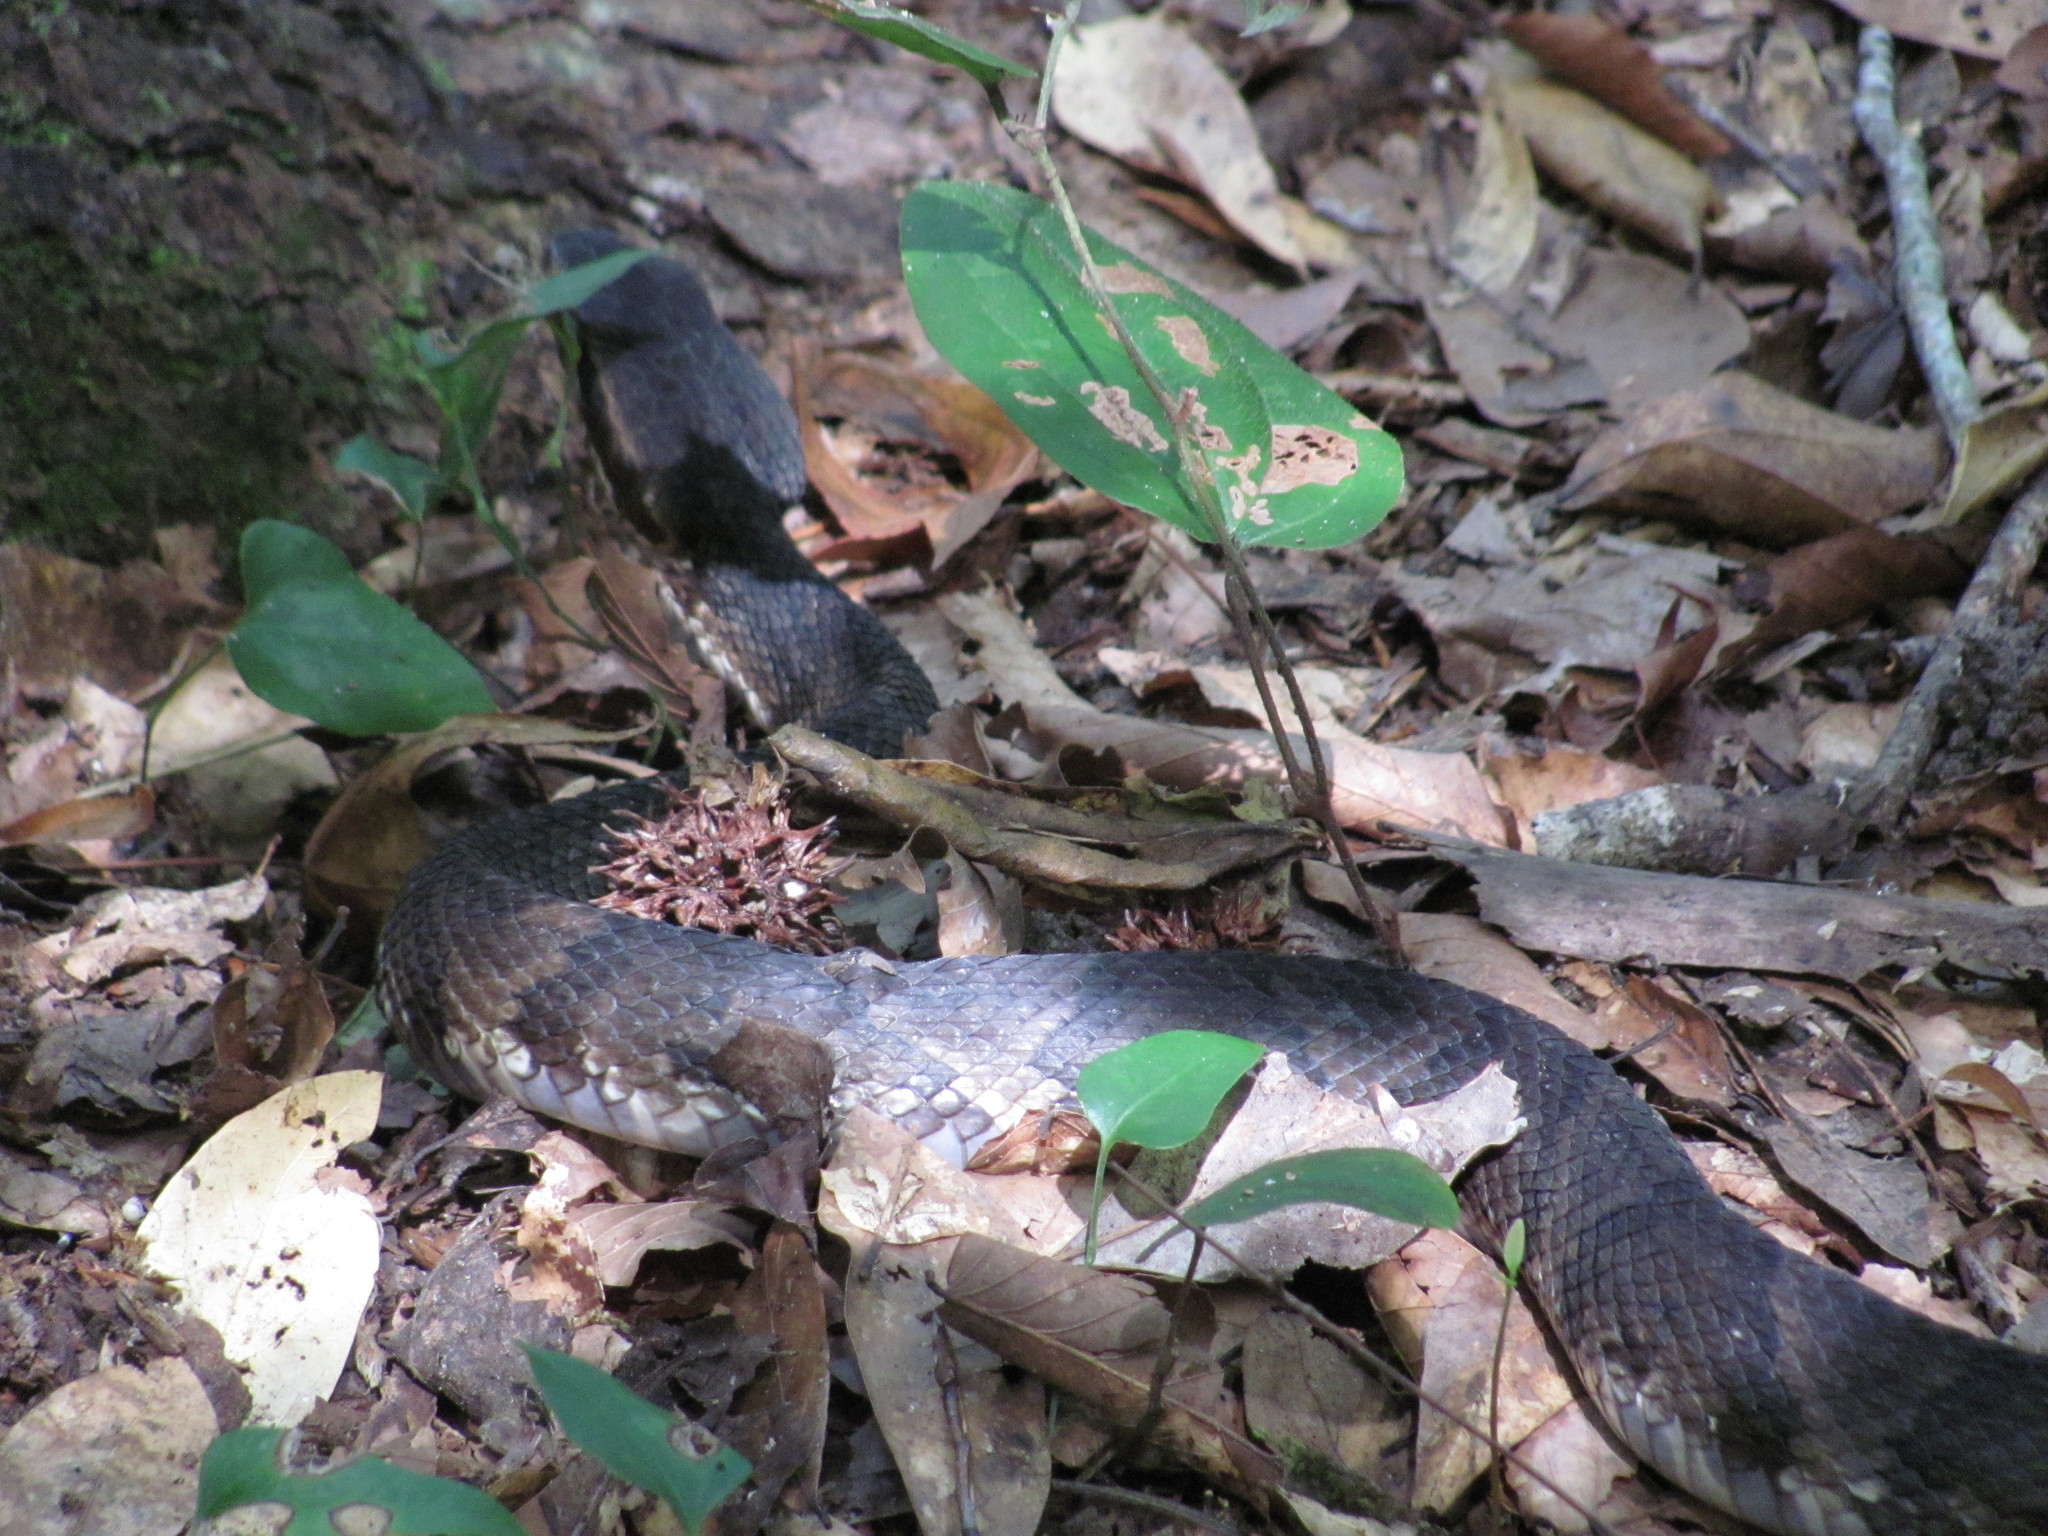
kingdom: Animalia
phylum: Chordata
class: Squamata
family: Viperidae
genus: Agkistrodon
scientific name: Agkistrodon piscivorus
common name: Cottonmouth
